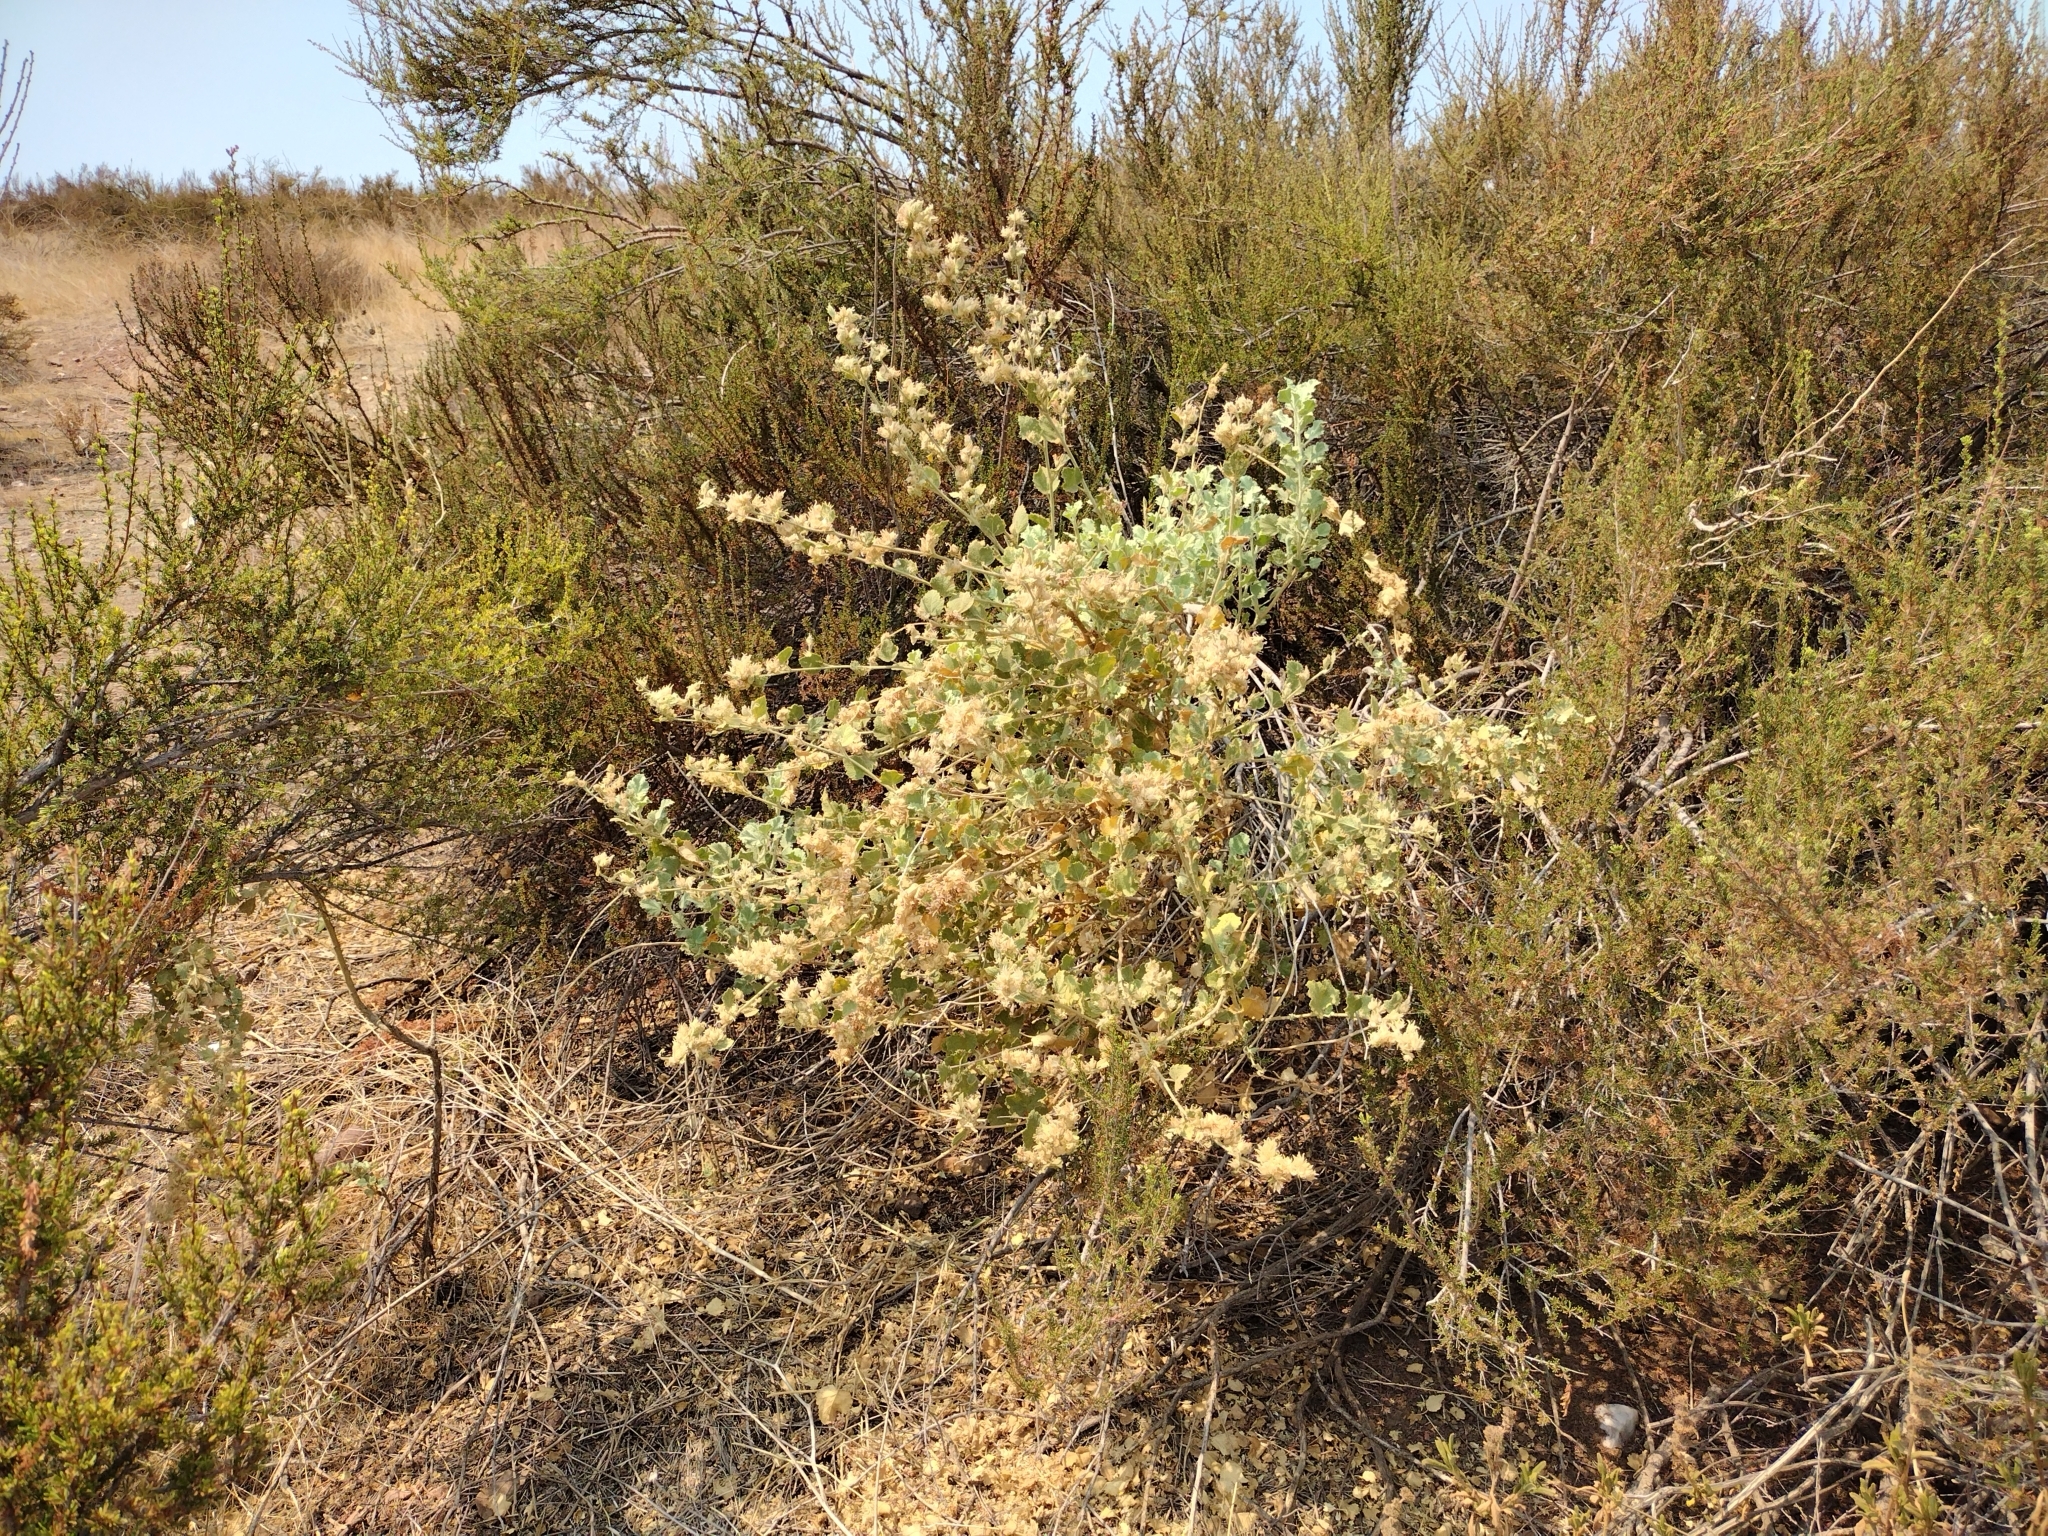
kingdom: Plantae
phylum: Tracheophyta
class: Magnoliopsida
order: Malvales
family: Malvaceae
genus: Malacothamnus
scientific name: Malacothamnus marrubioides
